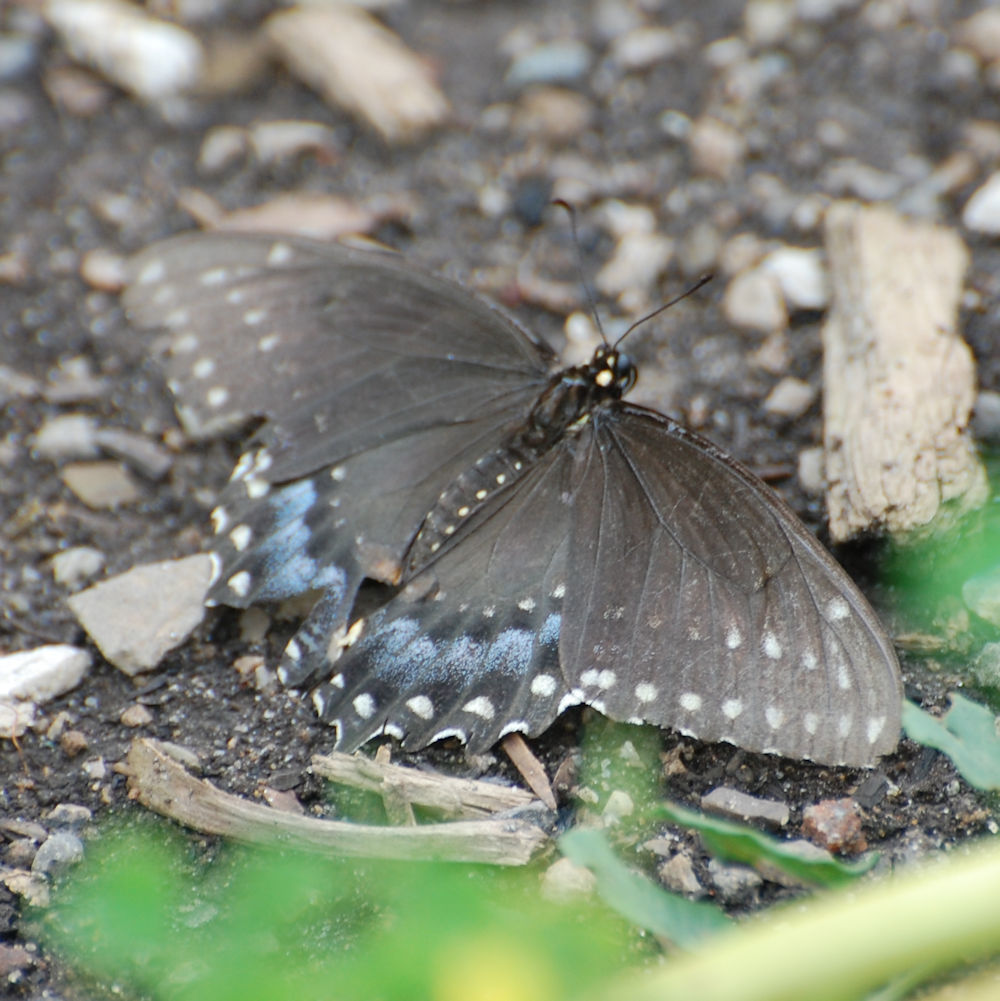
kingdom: Animalia
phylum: Arthropoda
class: Insecta
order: Lepidoptera
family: Papilionidae
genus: Papilio
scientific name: Papilio polyxenes
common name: Black swallowtail
